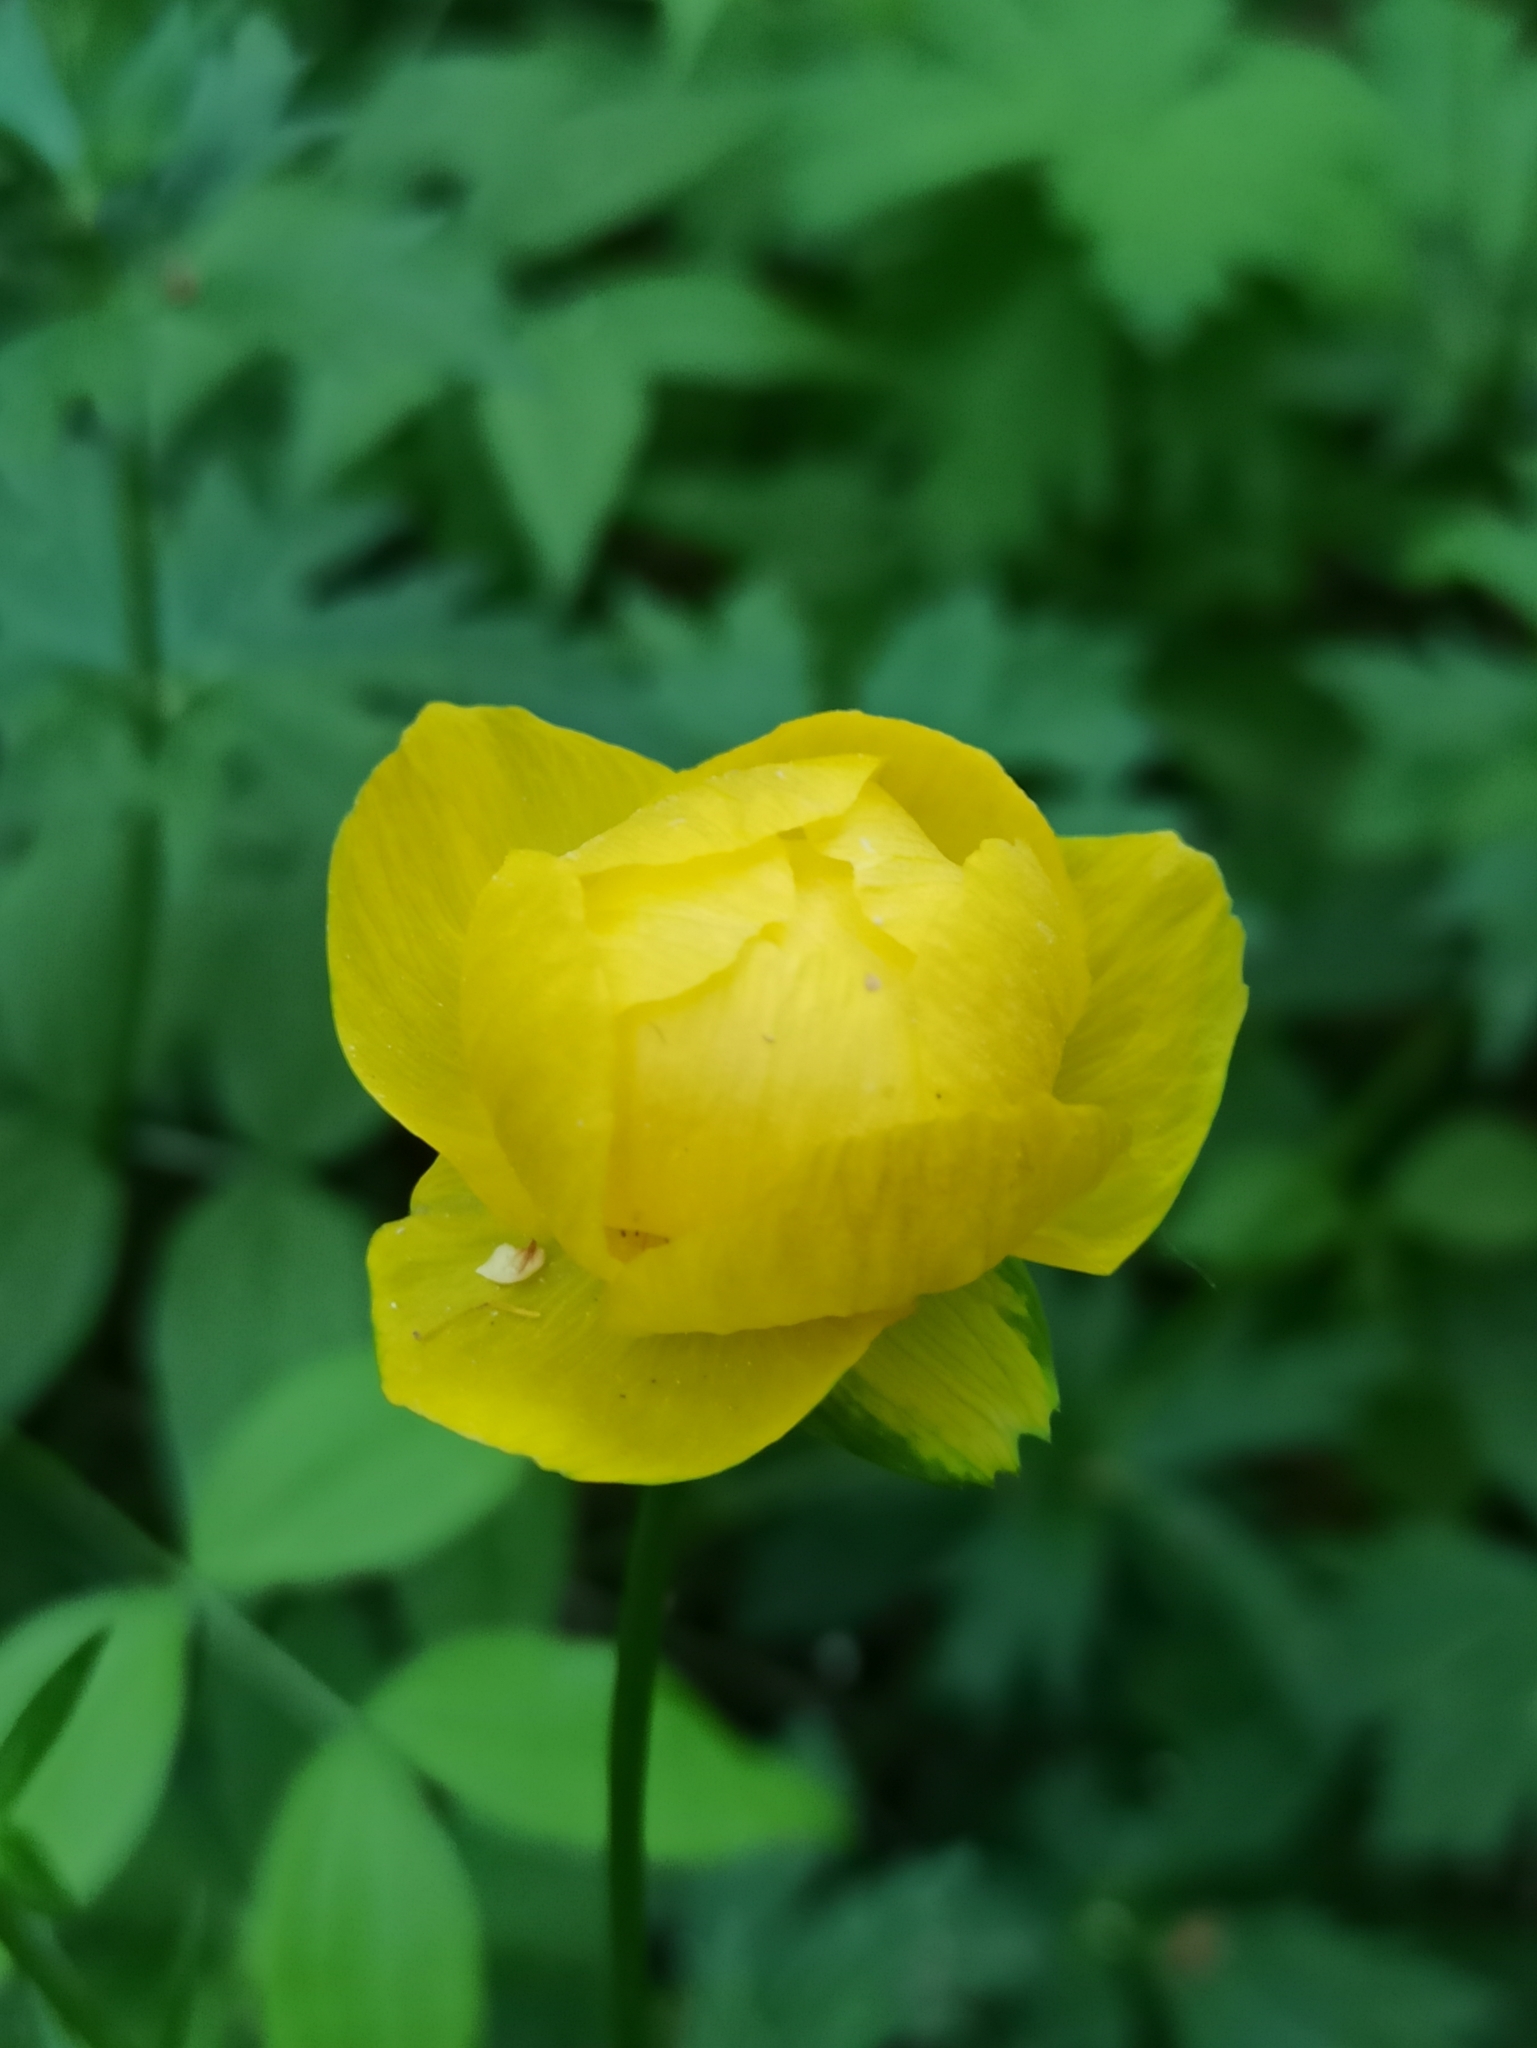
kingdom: Plantae
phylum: Tracheophyta
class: Magnoliopsida
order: Ranunculales
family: Ranunculaceae
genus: Trollius
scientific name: Trollius europaeus
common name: European globeflower
